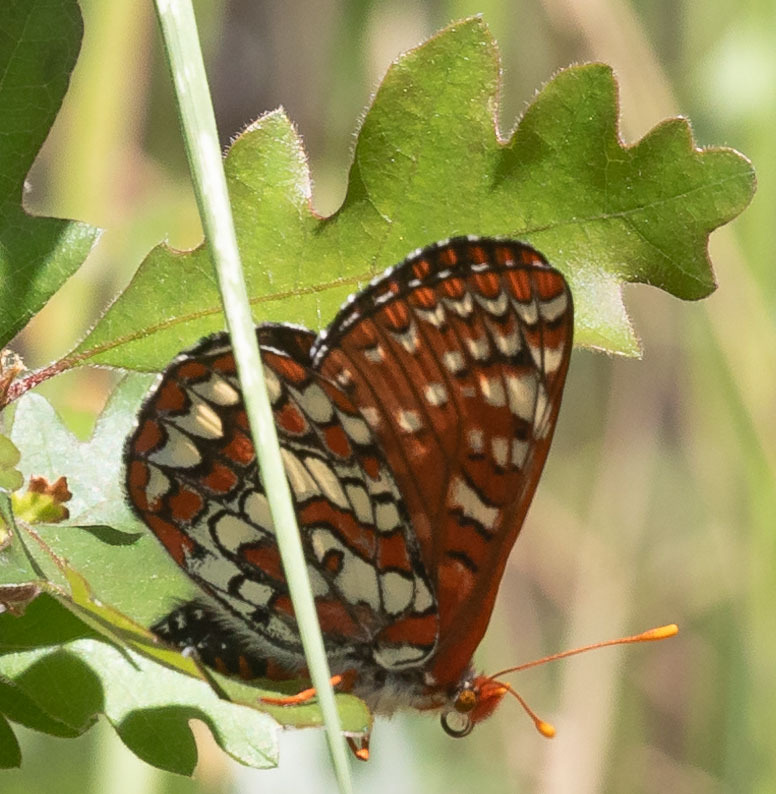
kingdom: Animalia
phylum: Arthropoda
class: Insecta
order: Lepidoptera
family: Nymphalidae
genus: Occidryas
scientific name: Occidryas chalcedona
